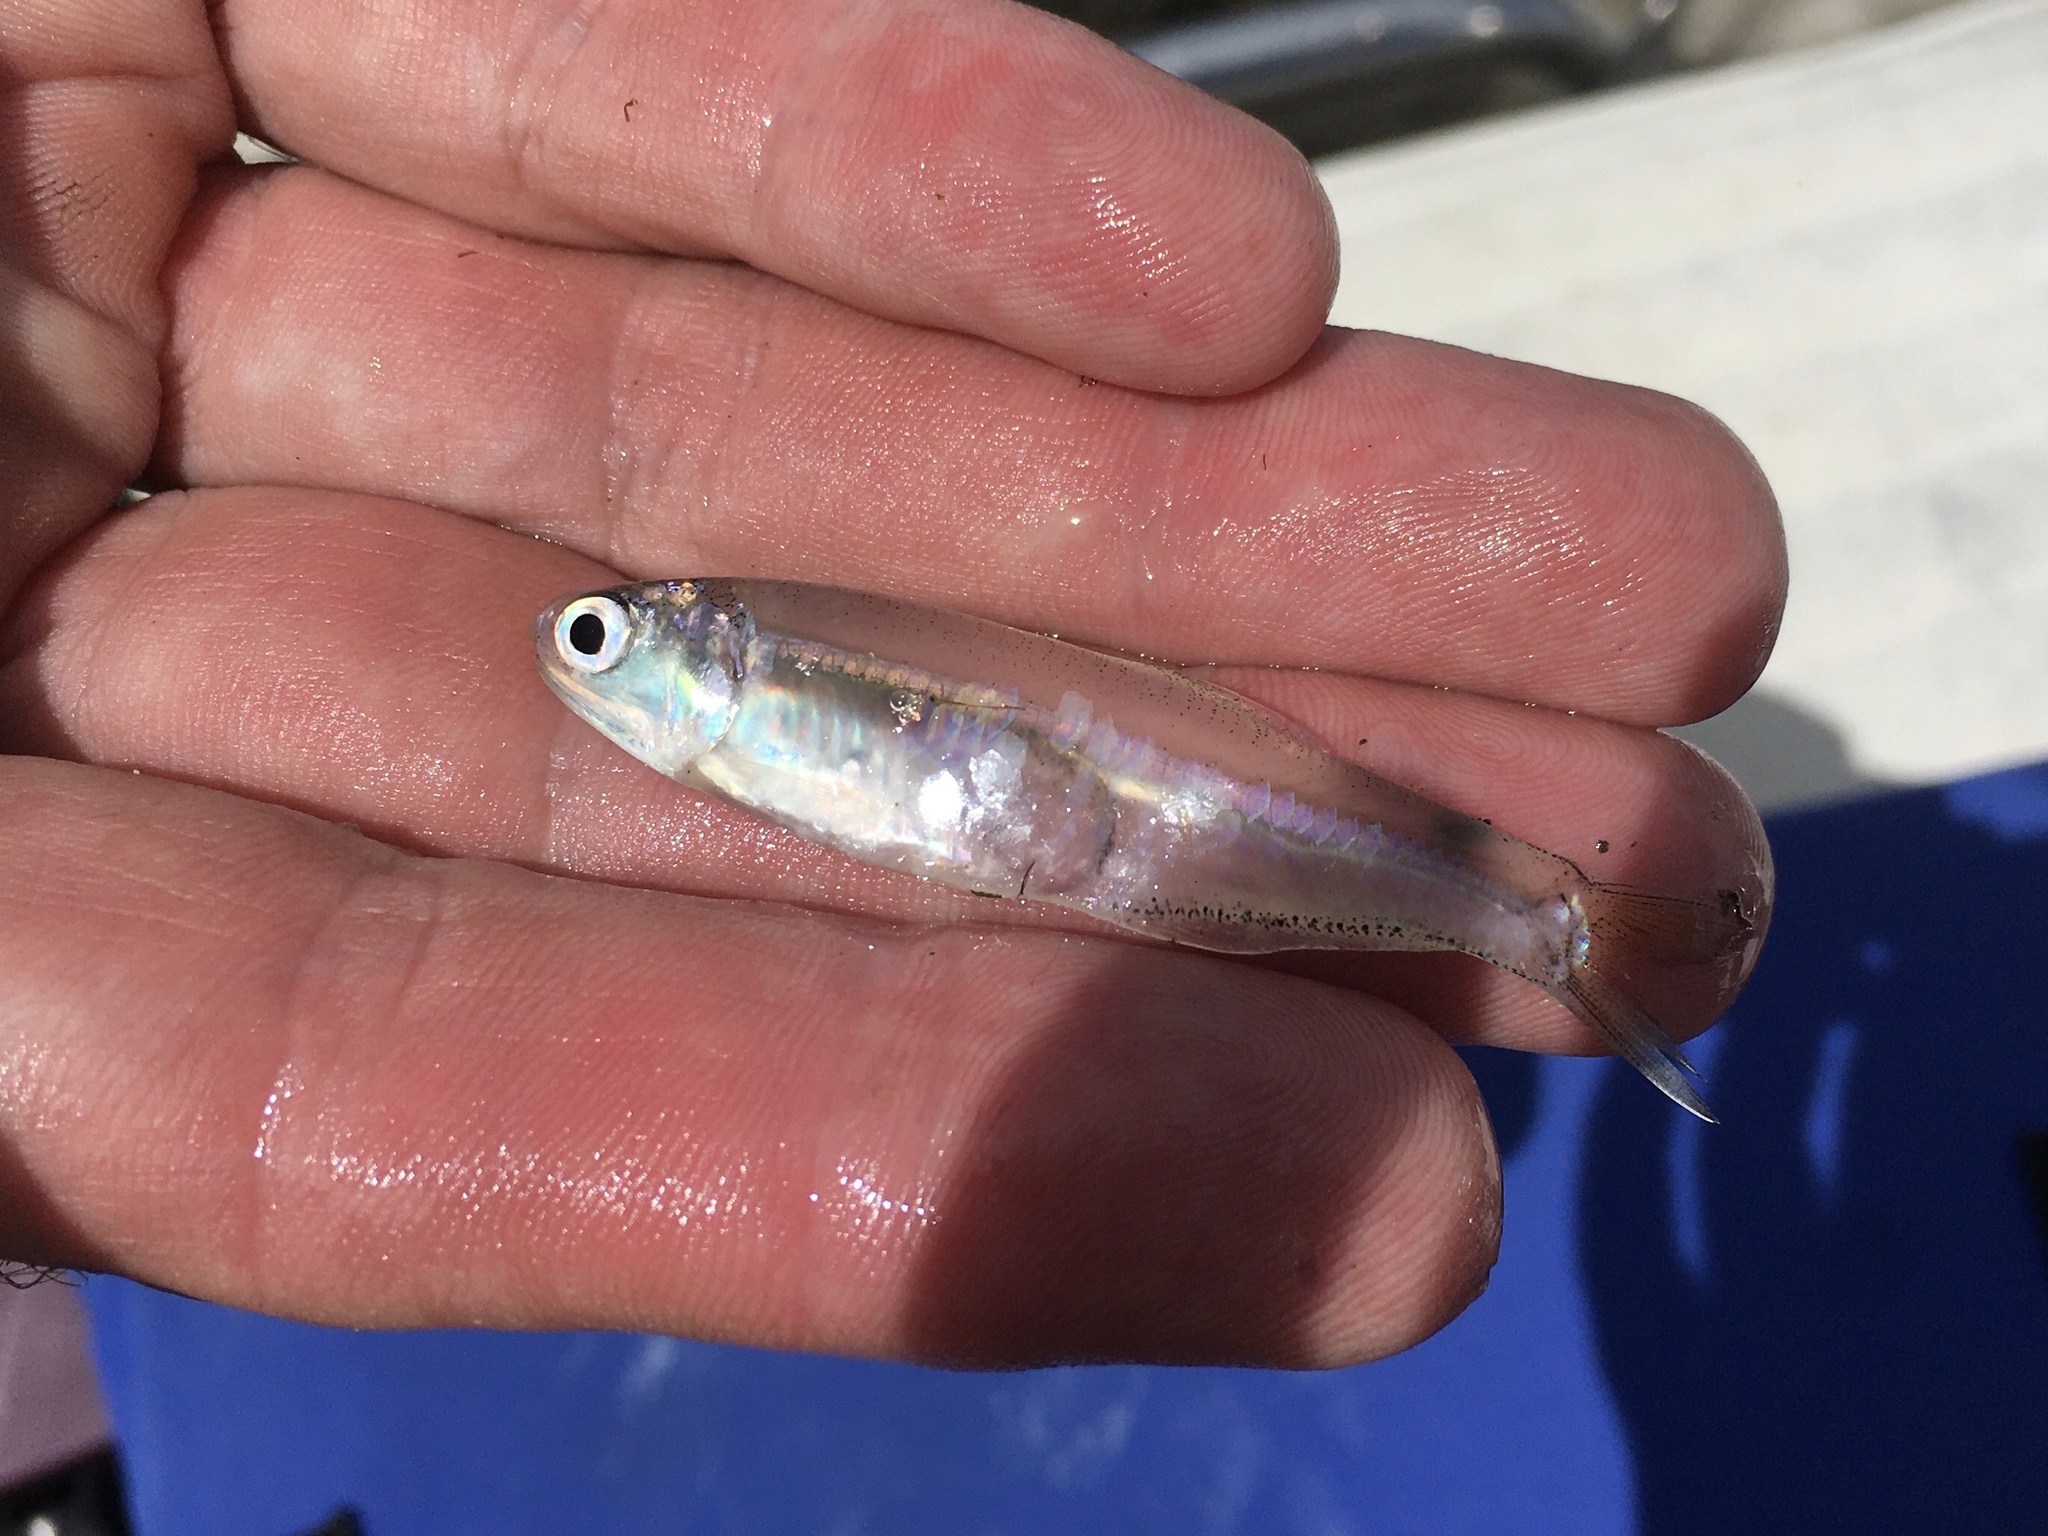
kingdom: Animalia
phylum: Chordata
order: Clupeiformes
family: Engraulidae
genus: Anchoa
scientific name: Anchoa mitchilli
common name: Bay anchovy
